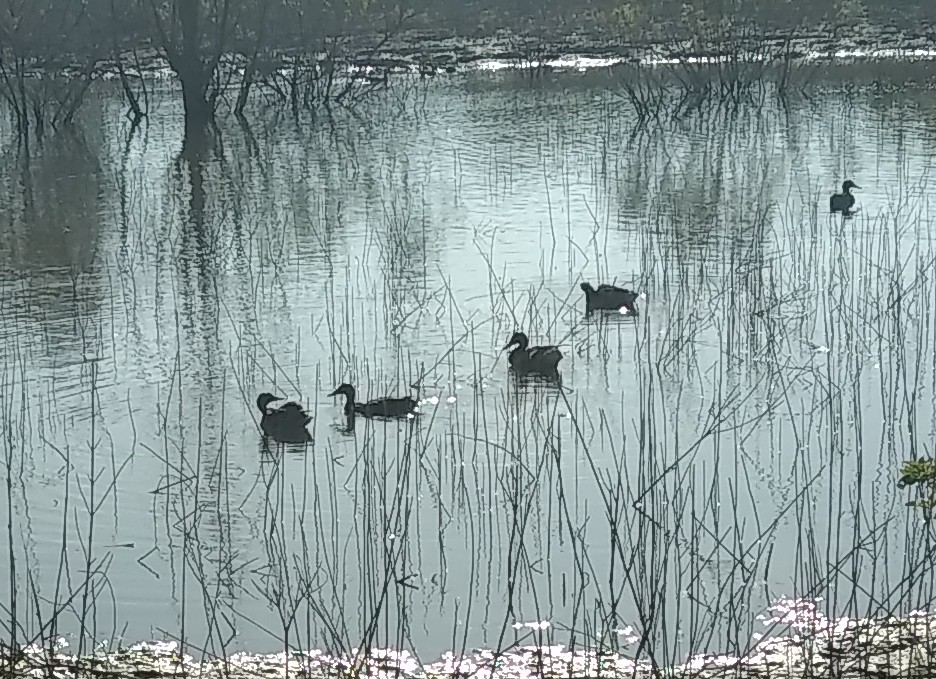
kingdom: Animalia
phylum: Chordata
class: Aves
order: Anseriformes
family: Anatidae
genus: Anas
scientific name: Anas platyrhynchos
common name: Mallard
